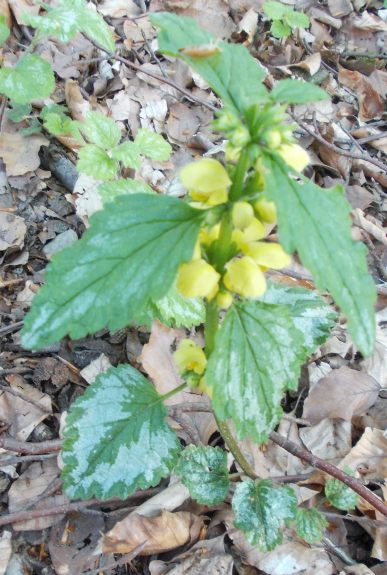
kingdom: Plantae
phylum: Tracheophyta
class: Magnoliopsida
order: Lamiales
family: Lamiaceae
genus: Lamium
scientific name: Lamium galeobdolon
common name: Yellow archangel
